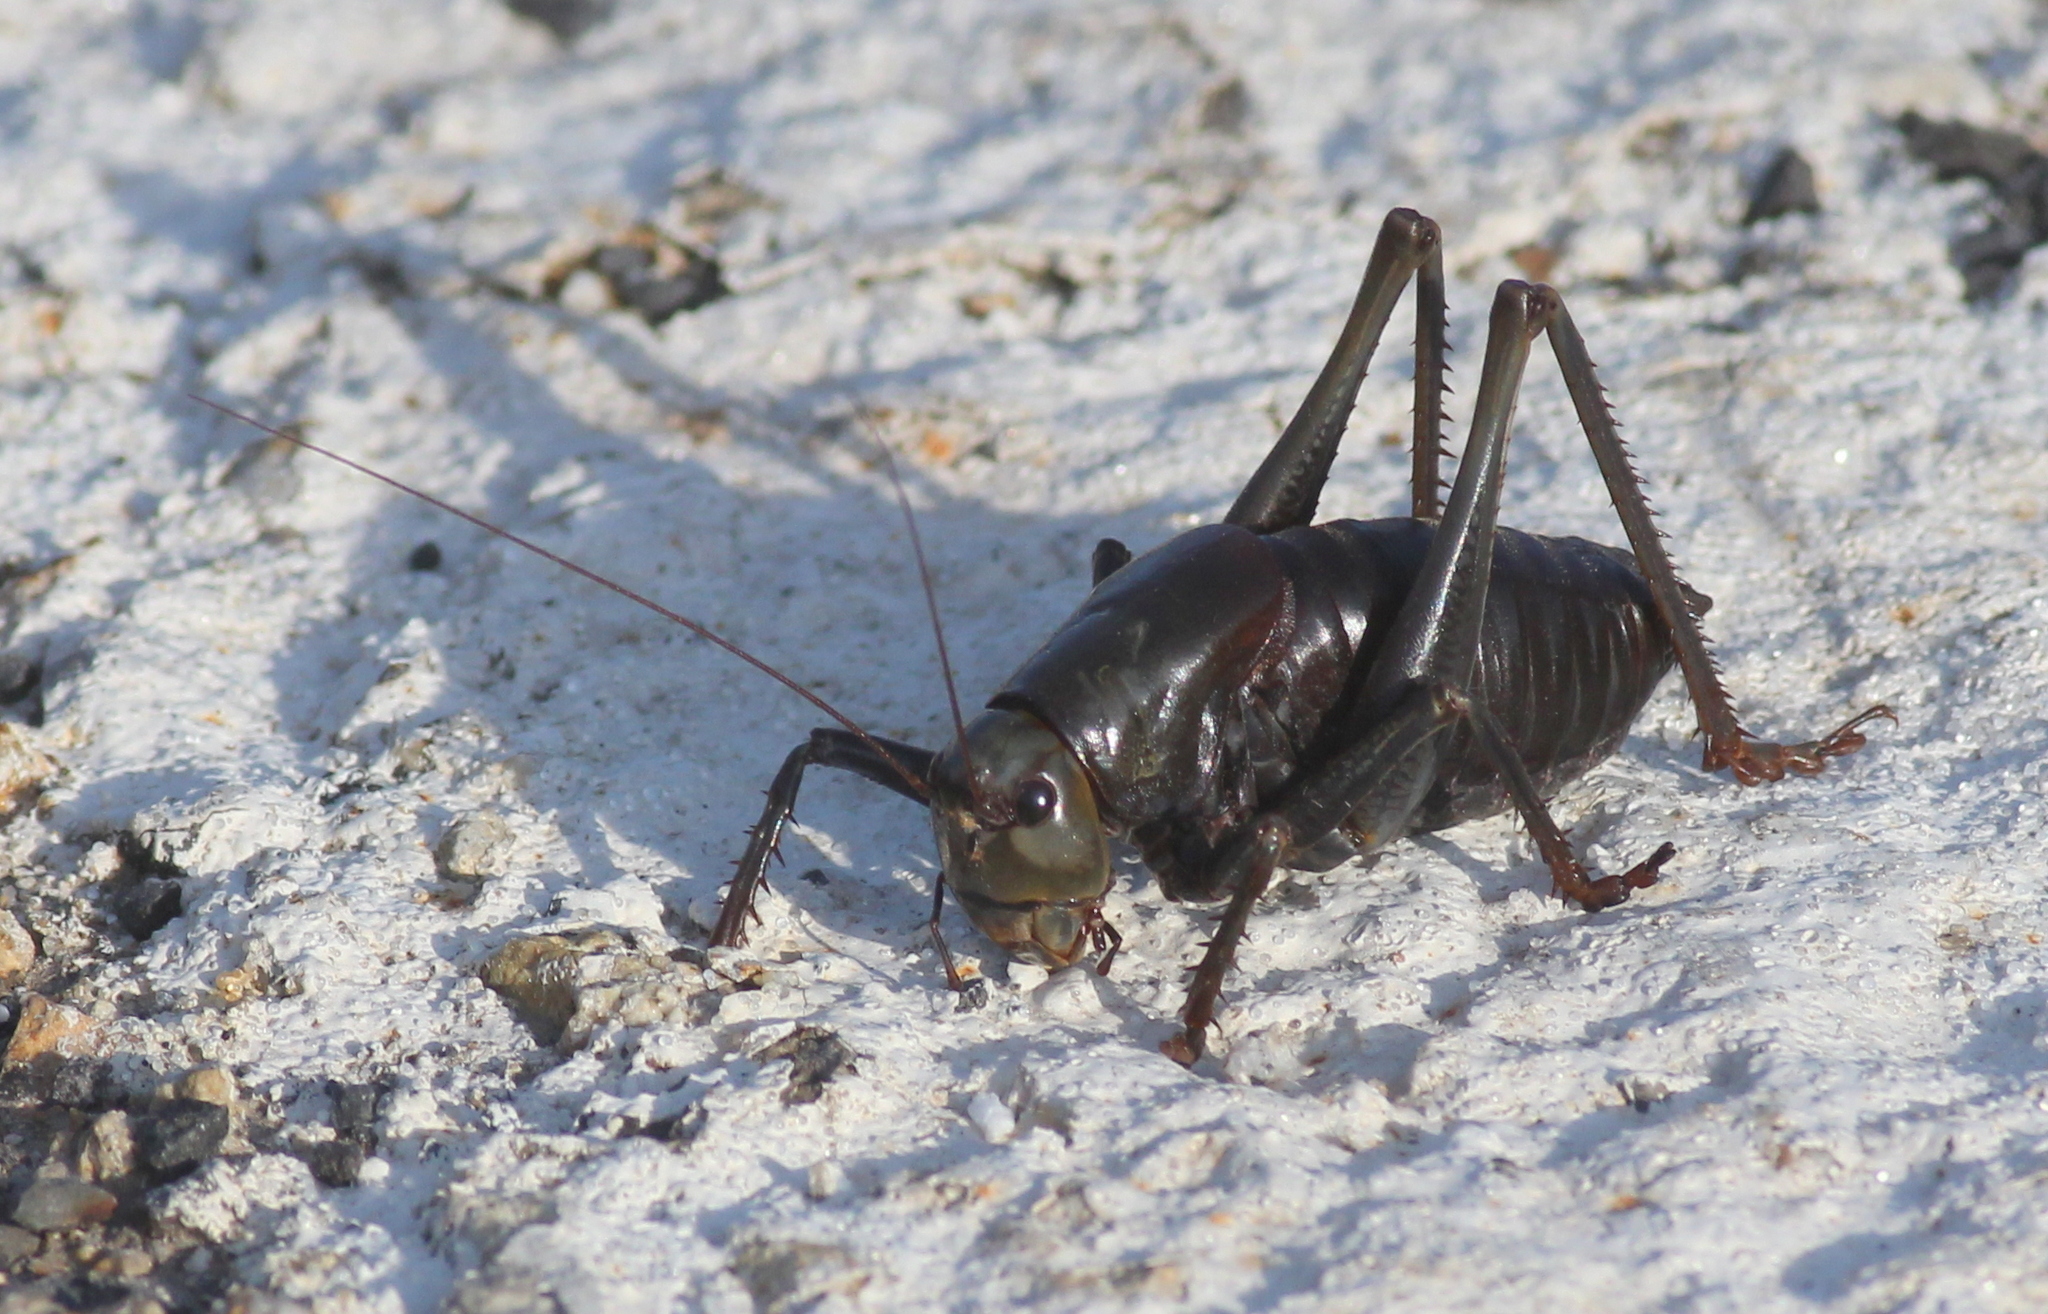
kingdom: Animalia
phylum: Arthropoda
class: Insecta
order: Orthoptera
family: Tettigoniidae
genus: Anabrus
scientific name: Anabrus simplex
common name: Mormon cricket
